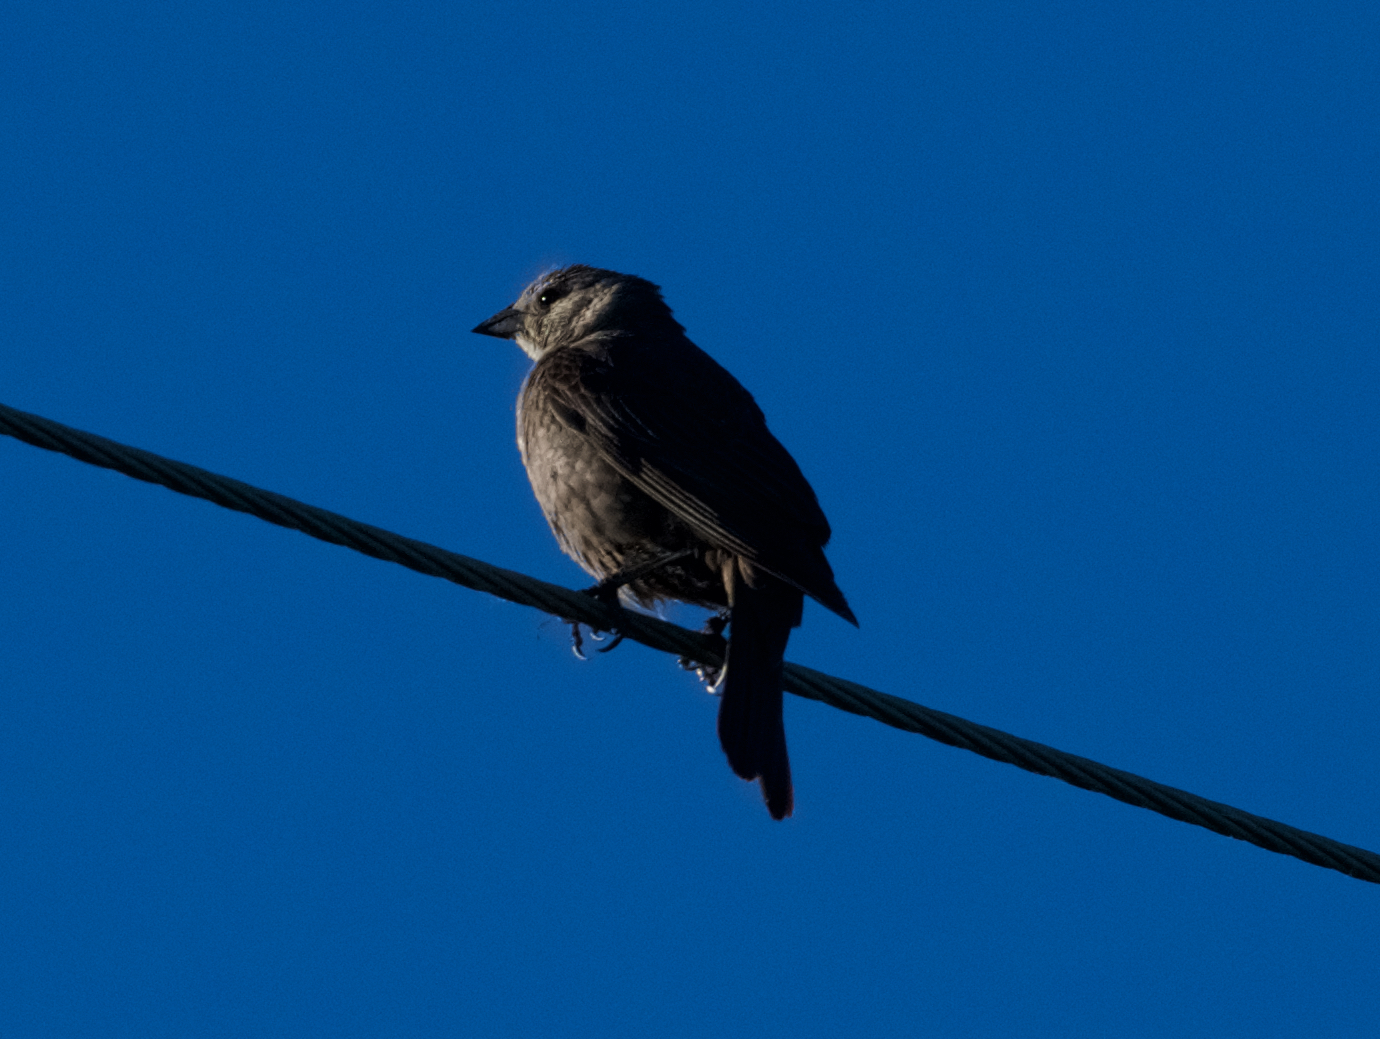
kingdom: Animalia
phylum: Chordata
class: Aves
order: Passeriformes
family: Icteridae
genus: Molothrus
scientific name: Molothrus ater
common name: Brown-headed cowbird
